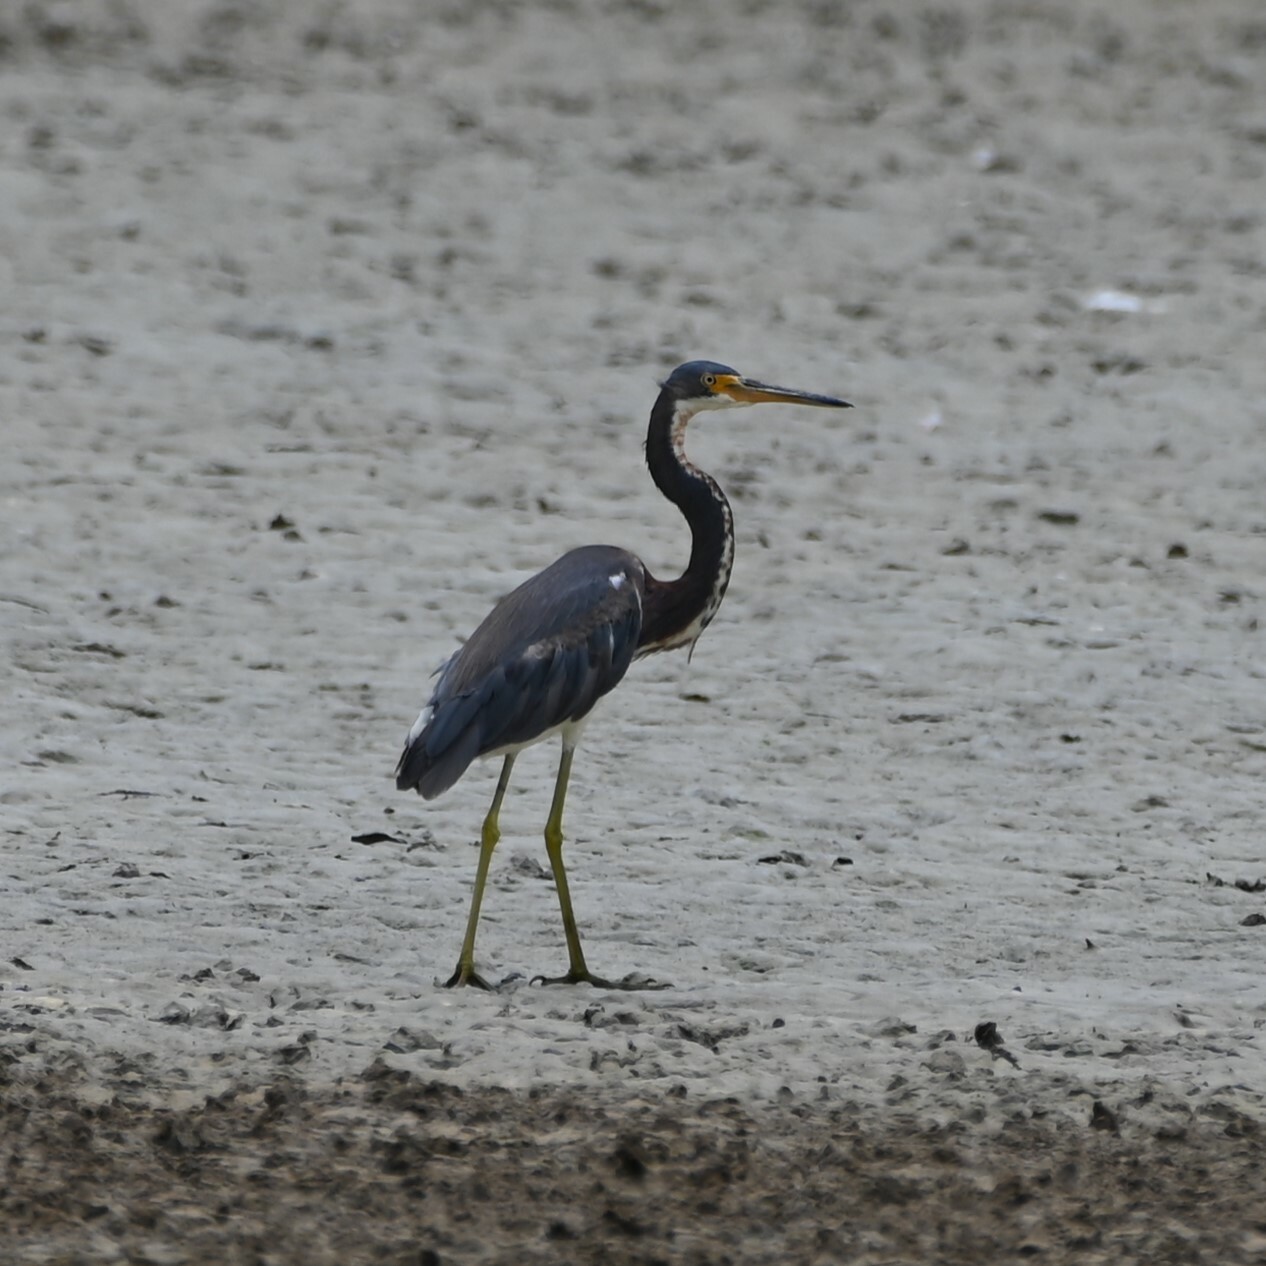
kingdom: Animalia
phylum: Chordata
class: Aves
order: Pelecaniformes
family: Ardeidae
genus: Egretta
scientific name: Egretta tricolor
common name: Tricolored heron
